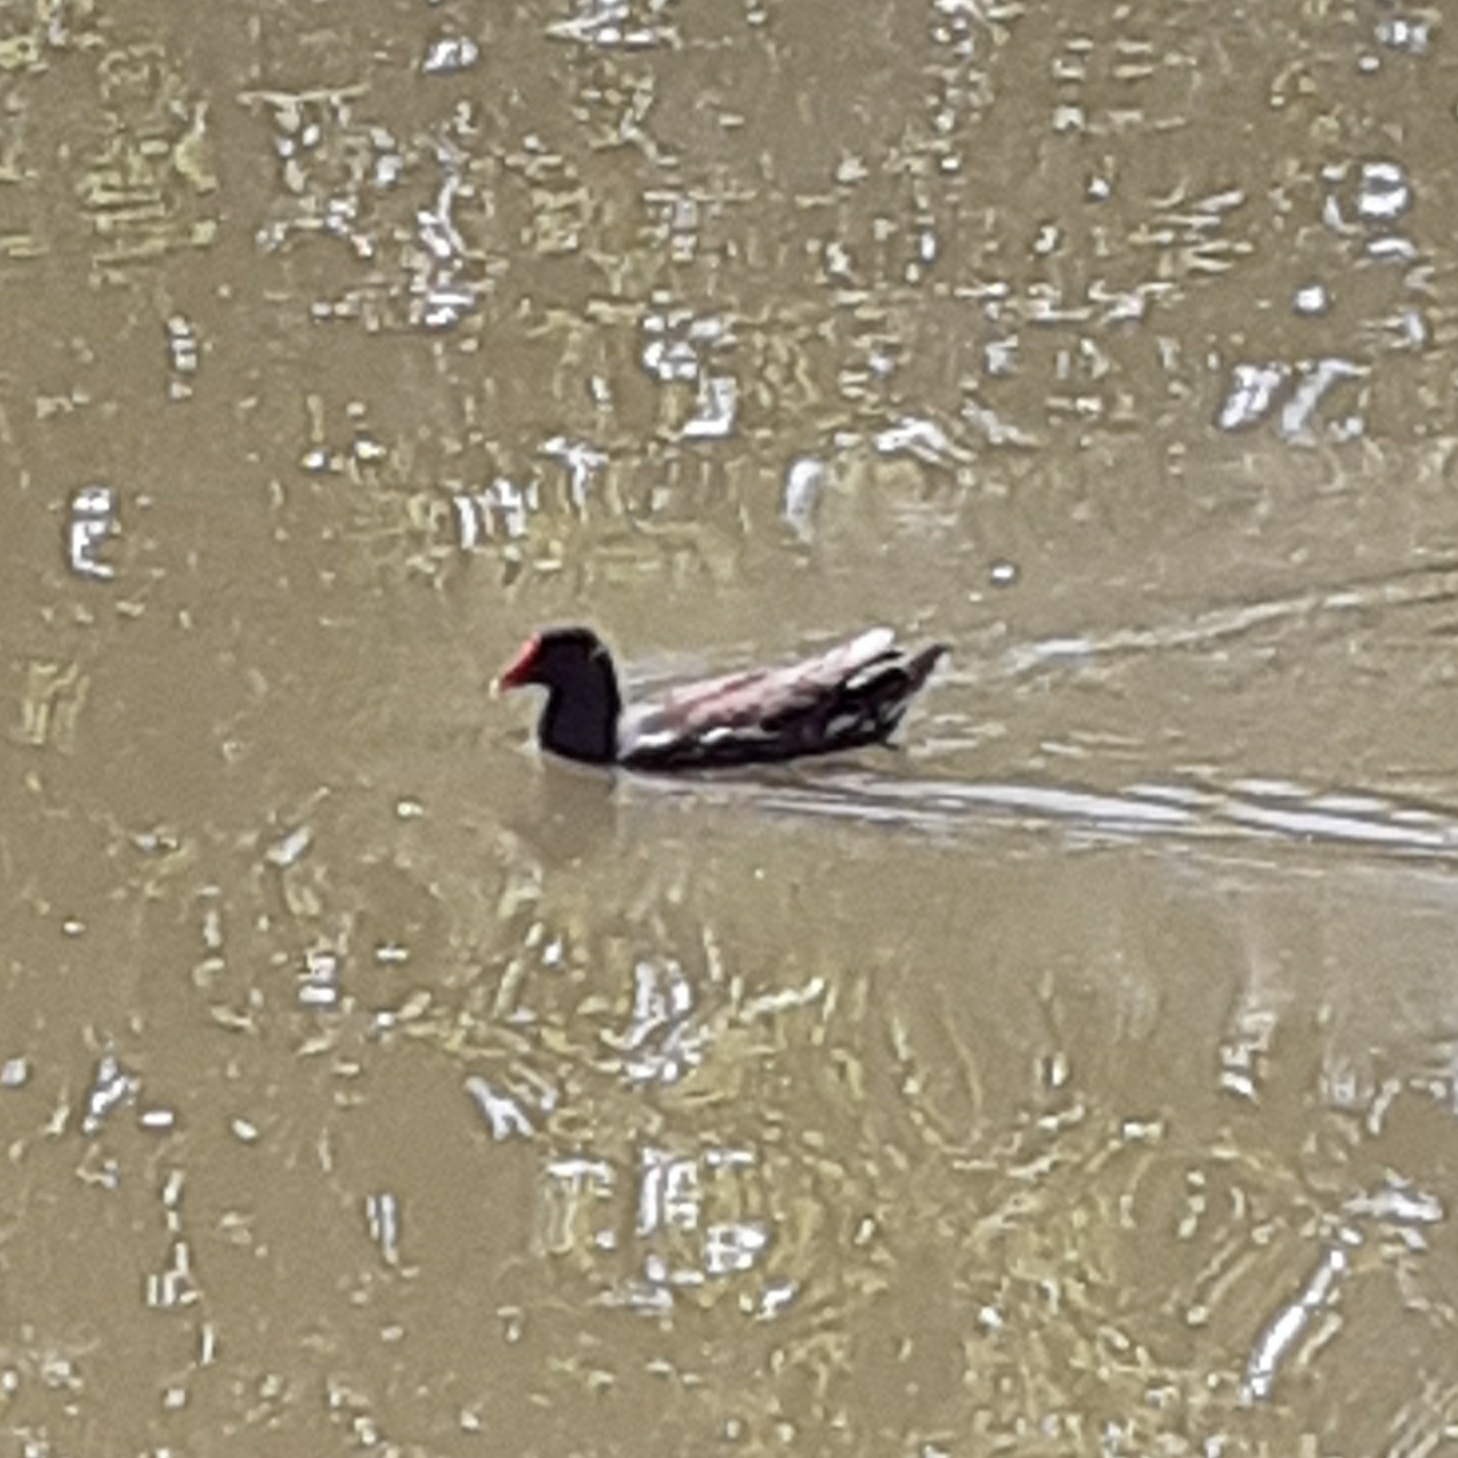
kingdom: Animalia
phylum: Chordata
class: Aves
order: Gruiformes
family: Rallidae
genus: Gallinula
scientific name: Gallinula chloropus
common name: Common moorhen
